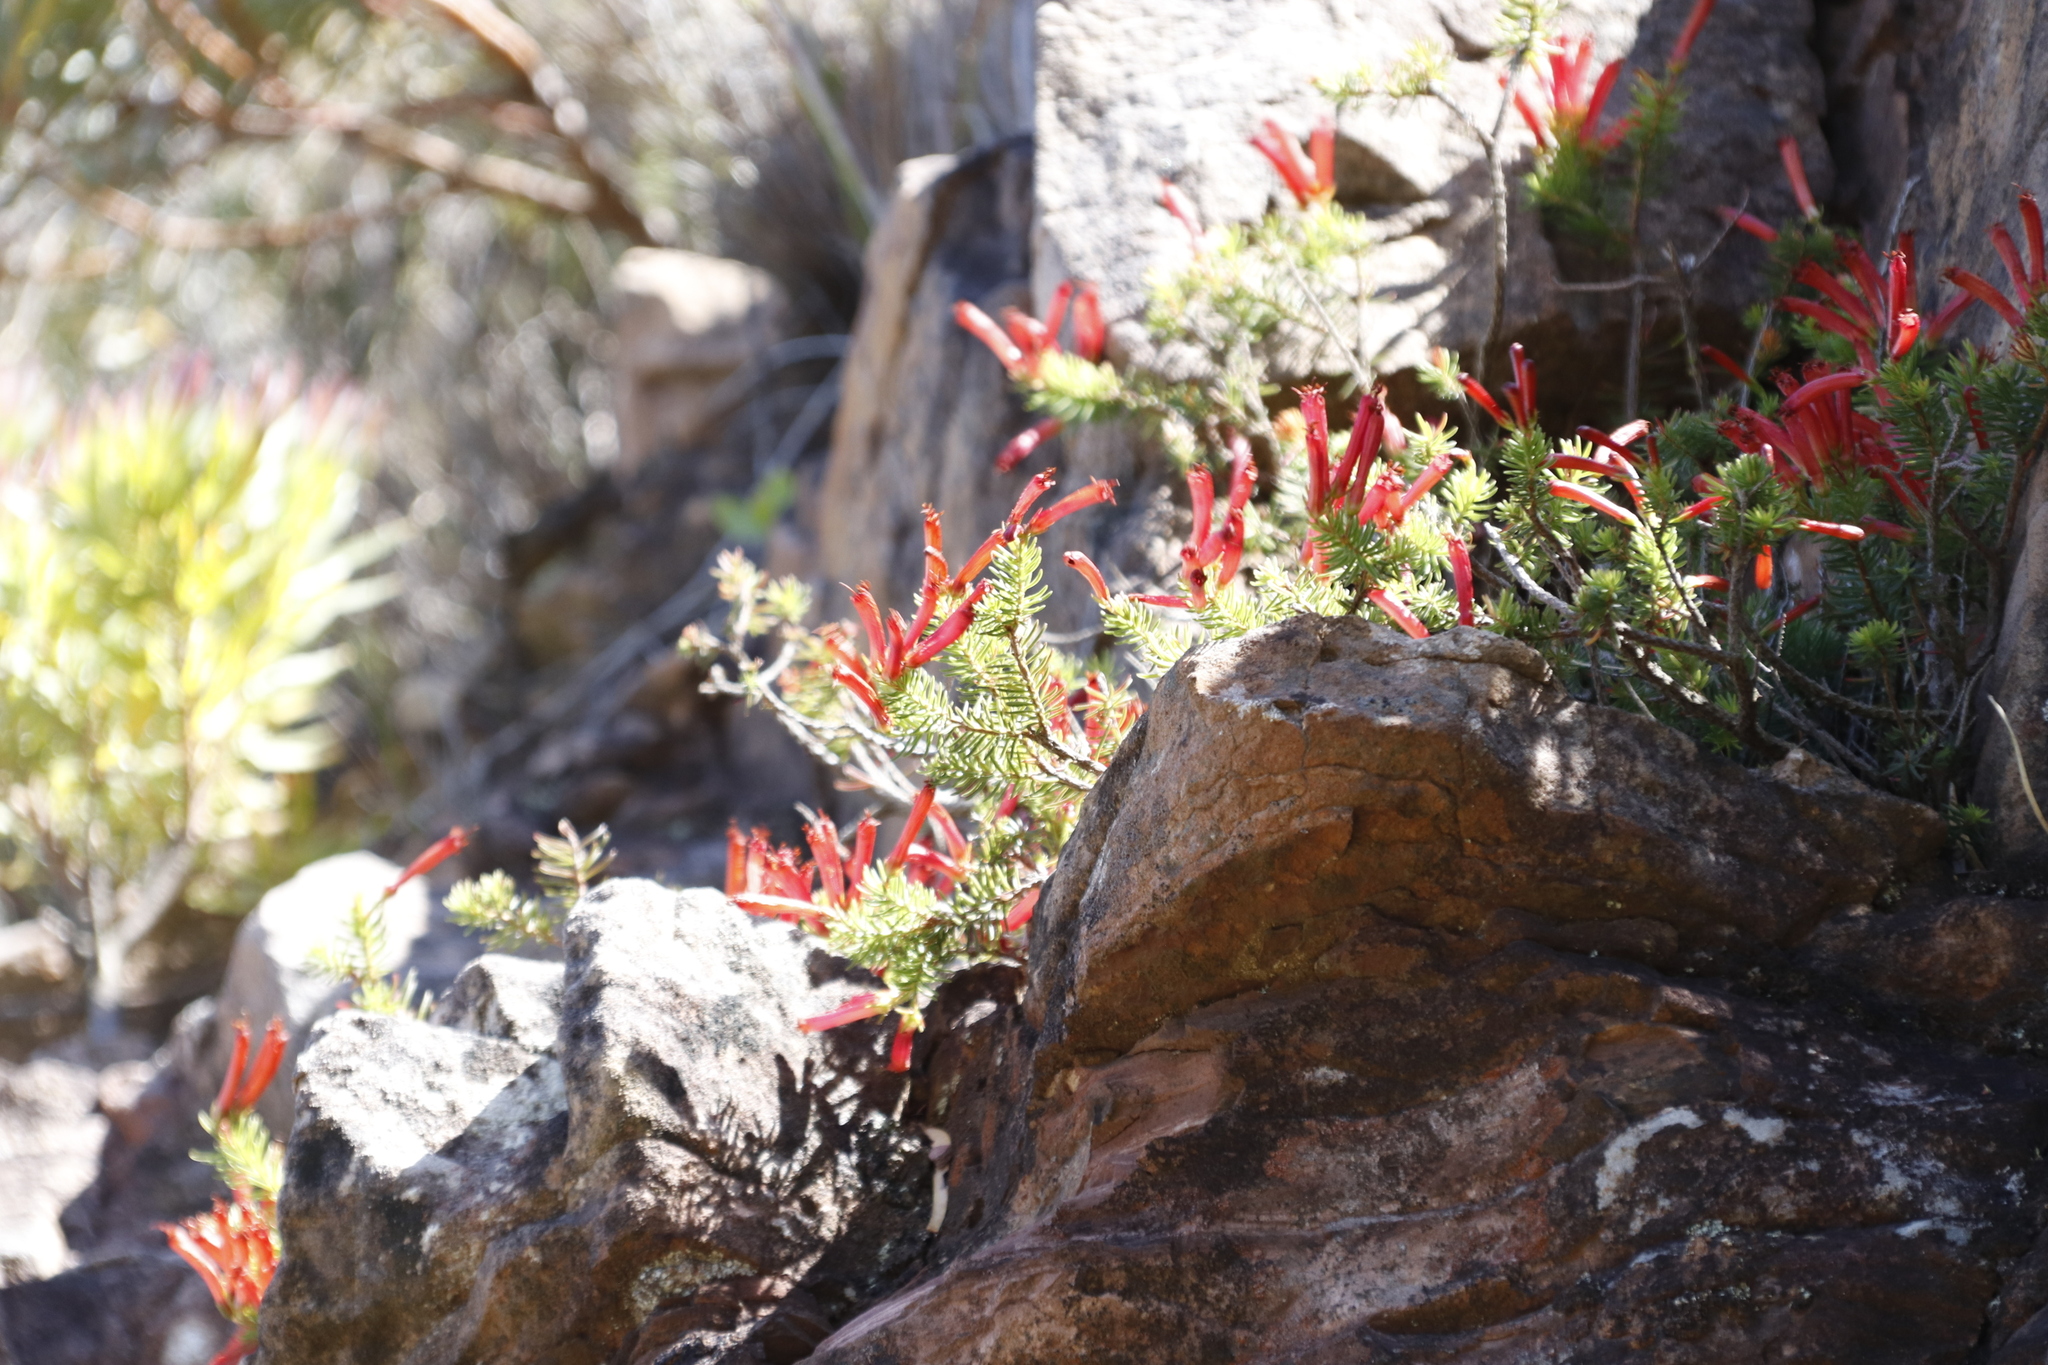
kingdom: Plantae
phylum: Tracheophyta
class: Magnoliopsida
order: Ericales
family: Ericaceae
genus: Erica
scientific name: Erica nevillei
